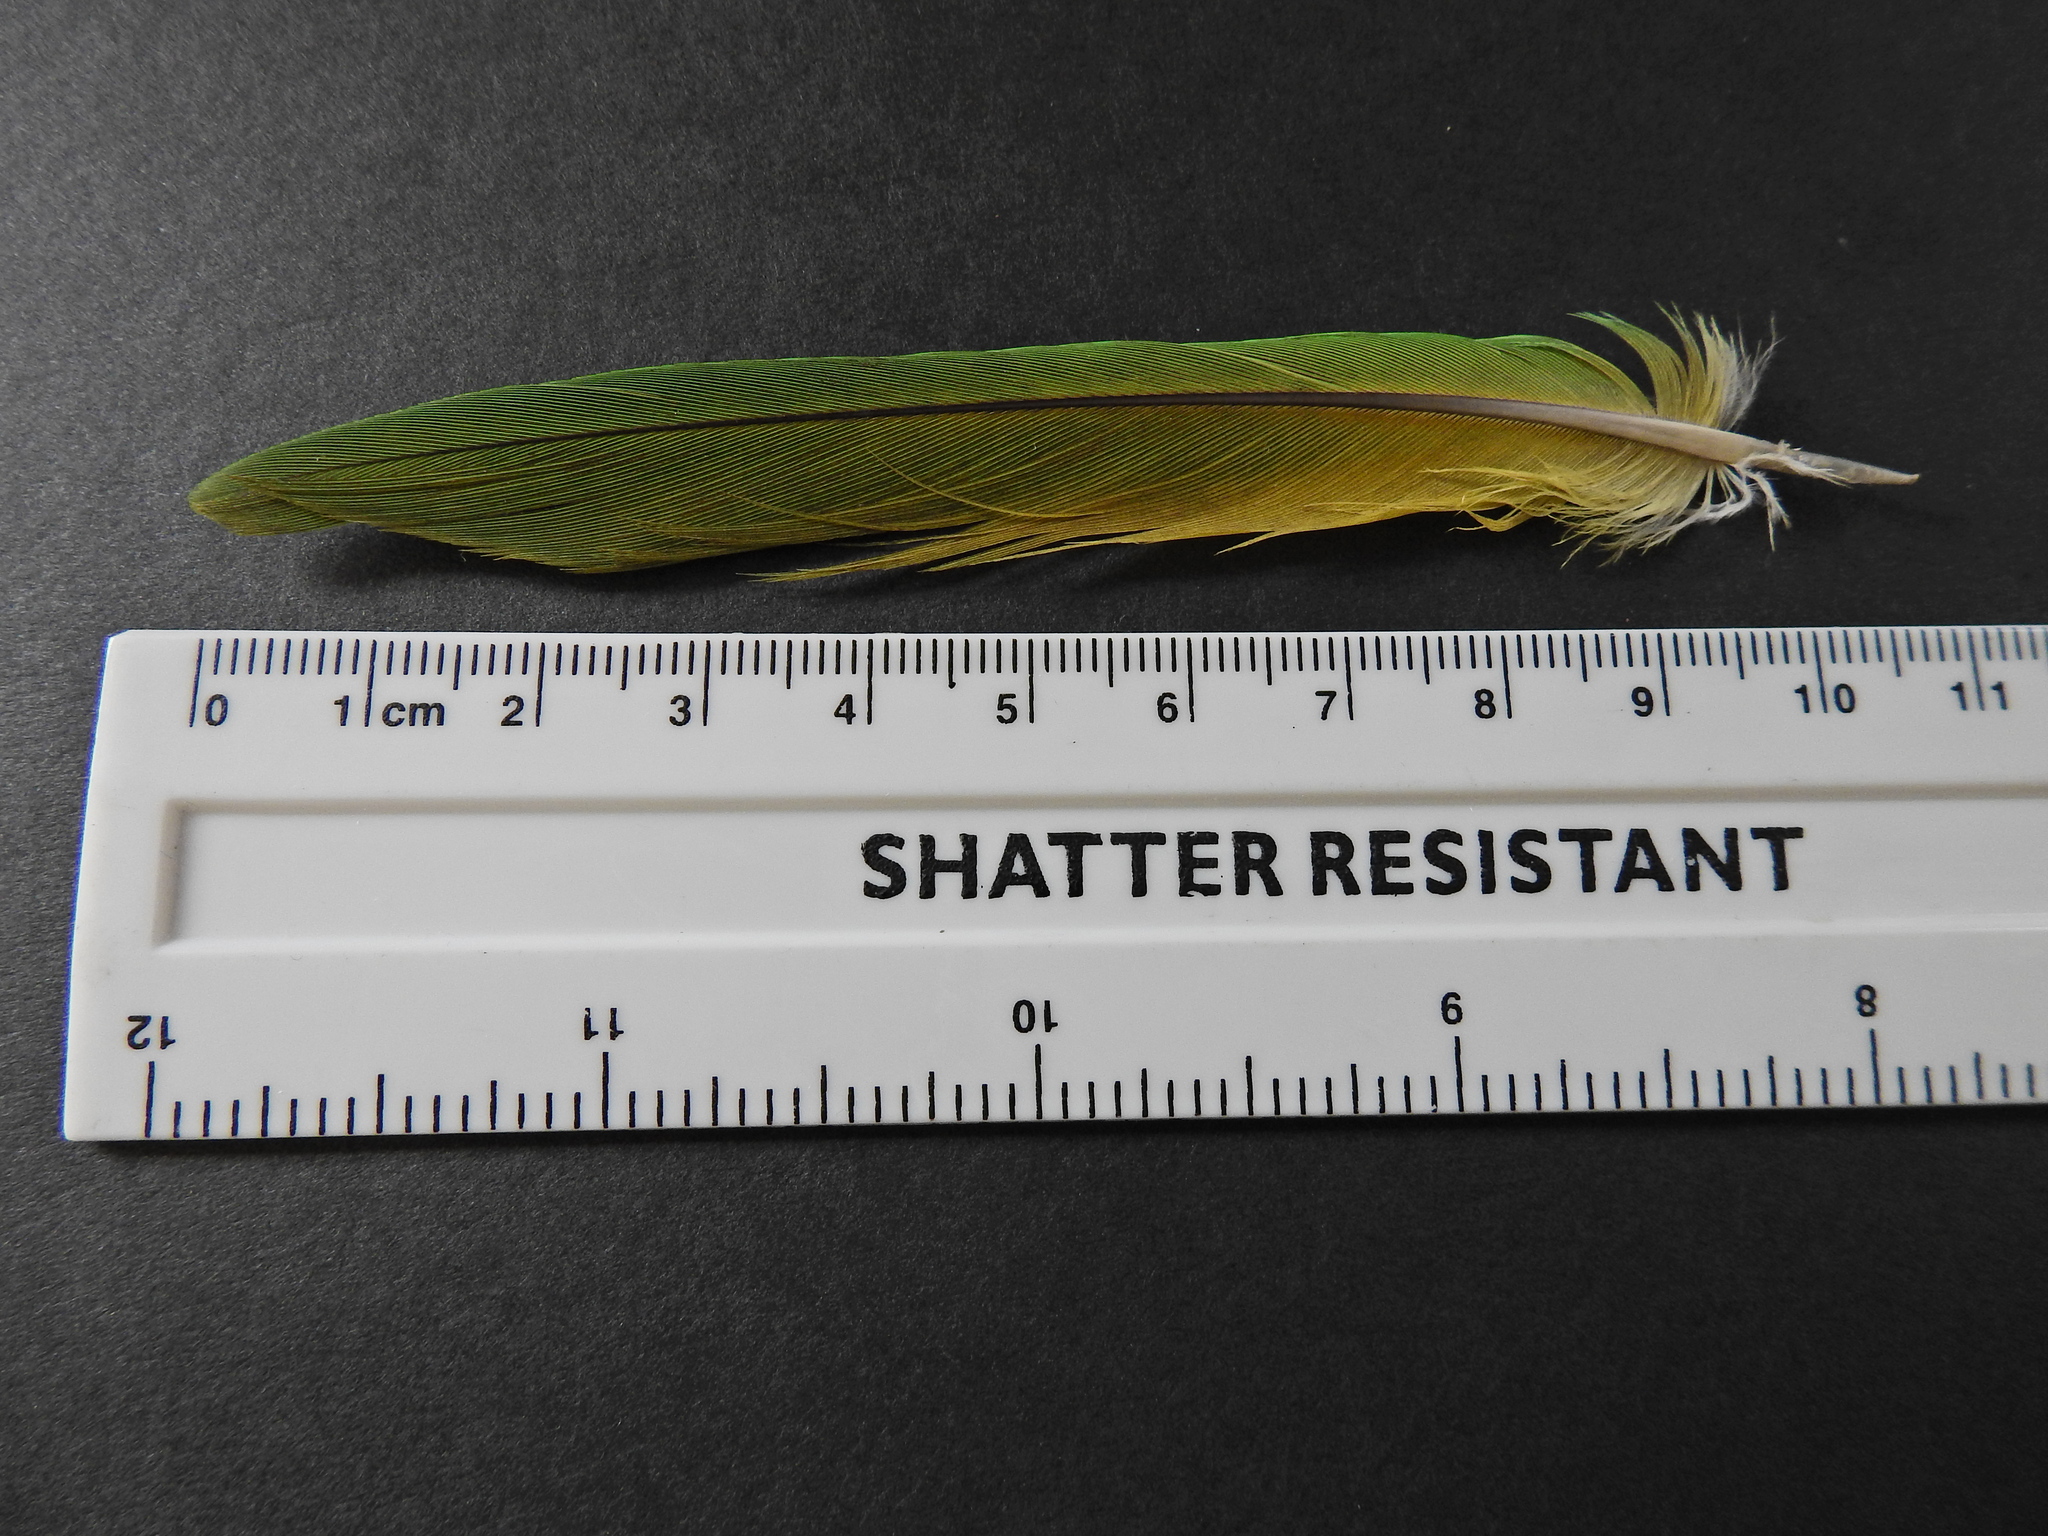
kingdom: Animalia
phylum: Chordata
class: Aves
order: Psittaciformes
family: Psittacidae
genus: Psittacula
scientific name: Psittacula krameri
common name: Rose-ringed parakeet
